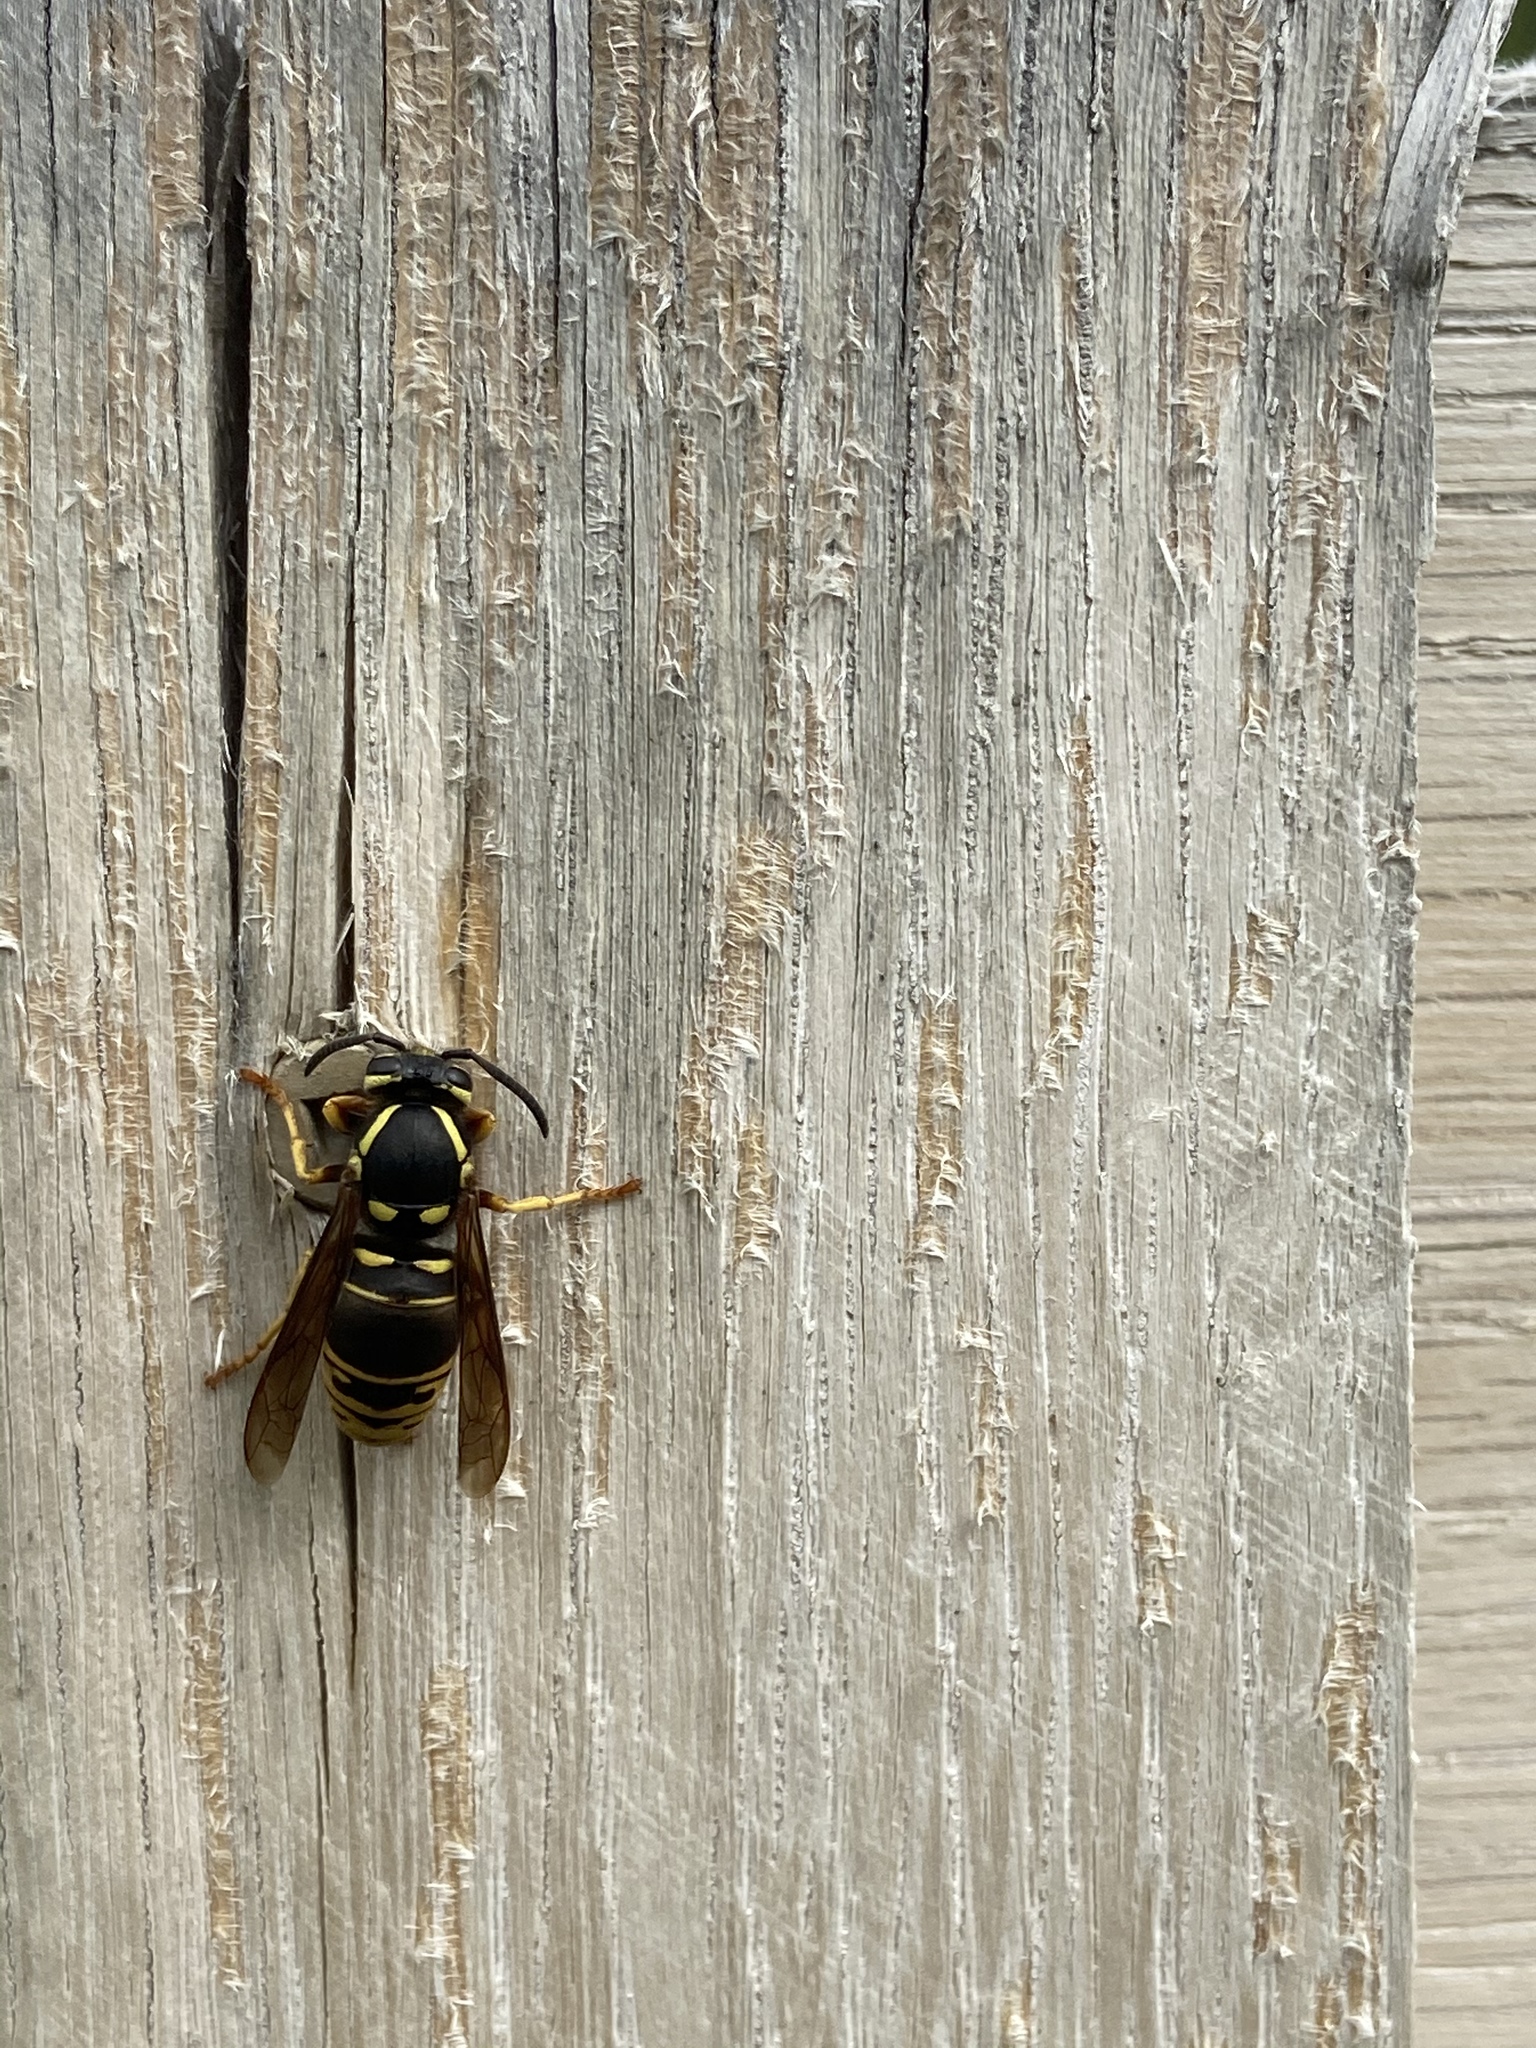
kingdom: Animalia
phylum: Arthropoda
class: Insecta
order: Hymenoptera
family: Vespidae
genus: Vespula
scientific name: Vespula vidua
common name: Widow yellowjacket
